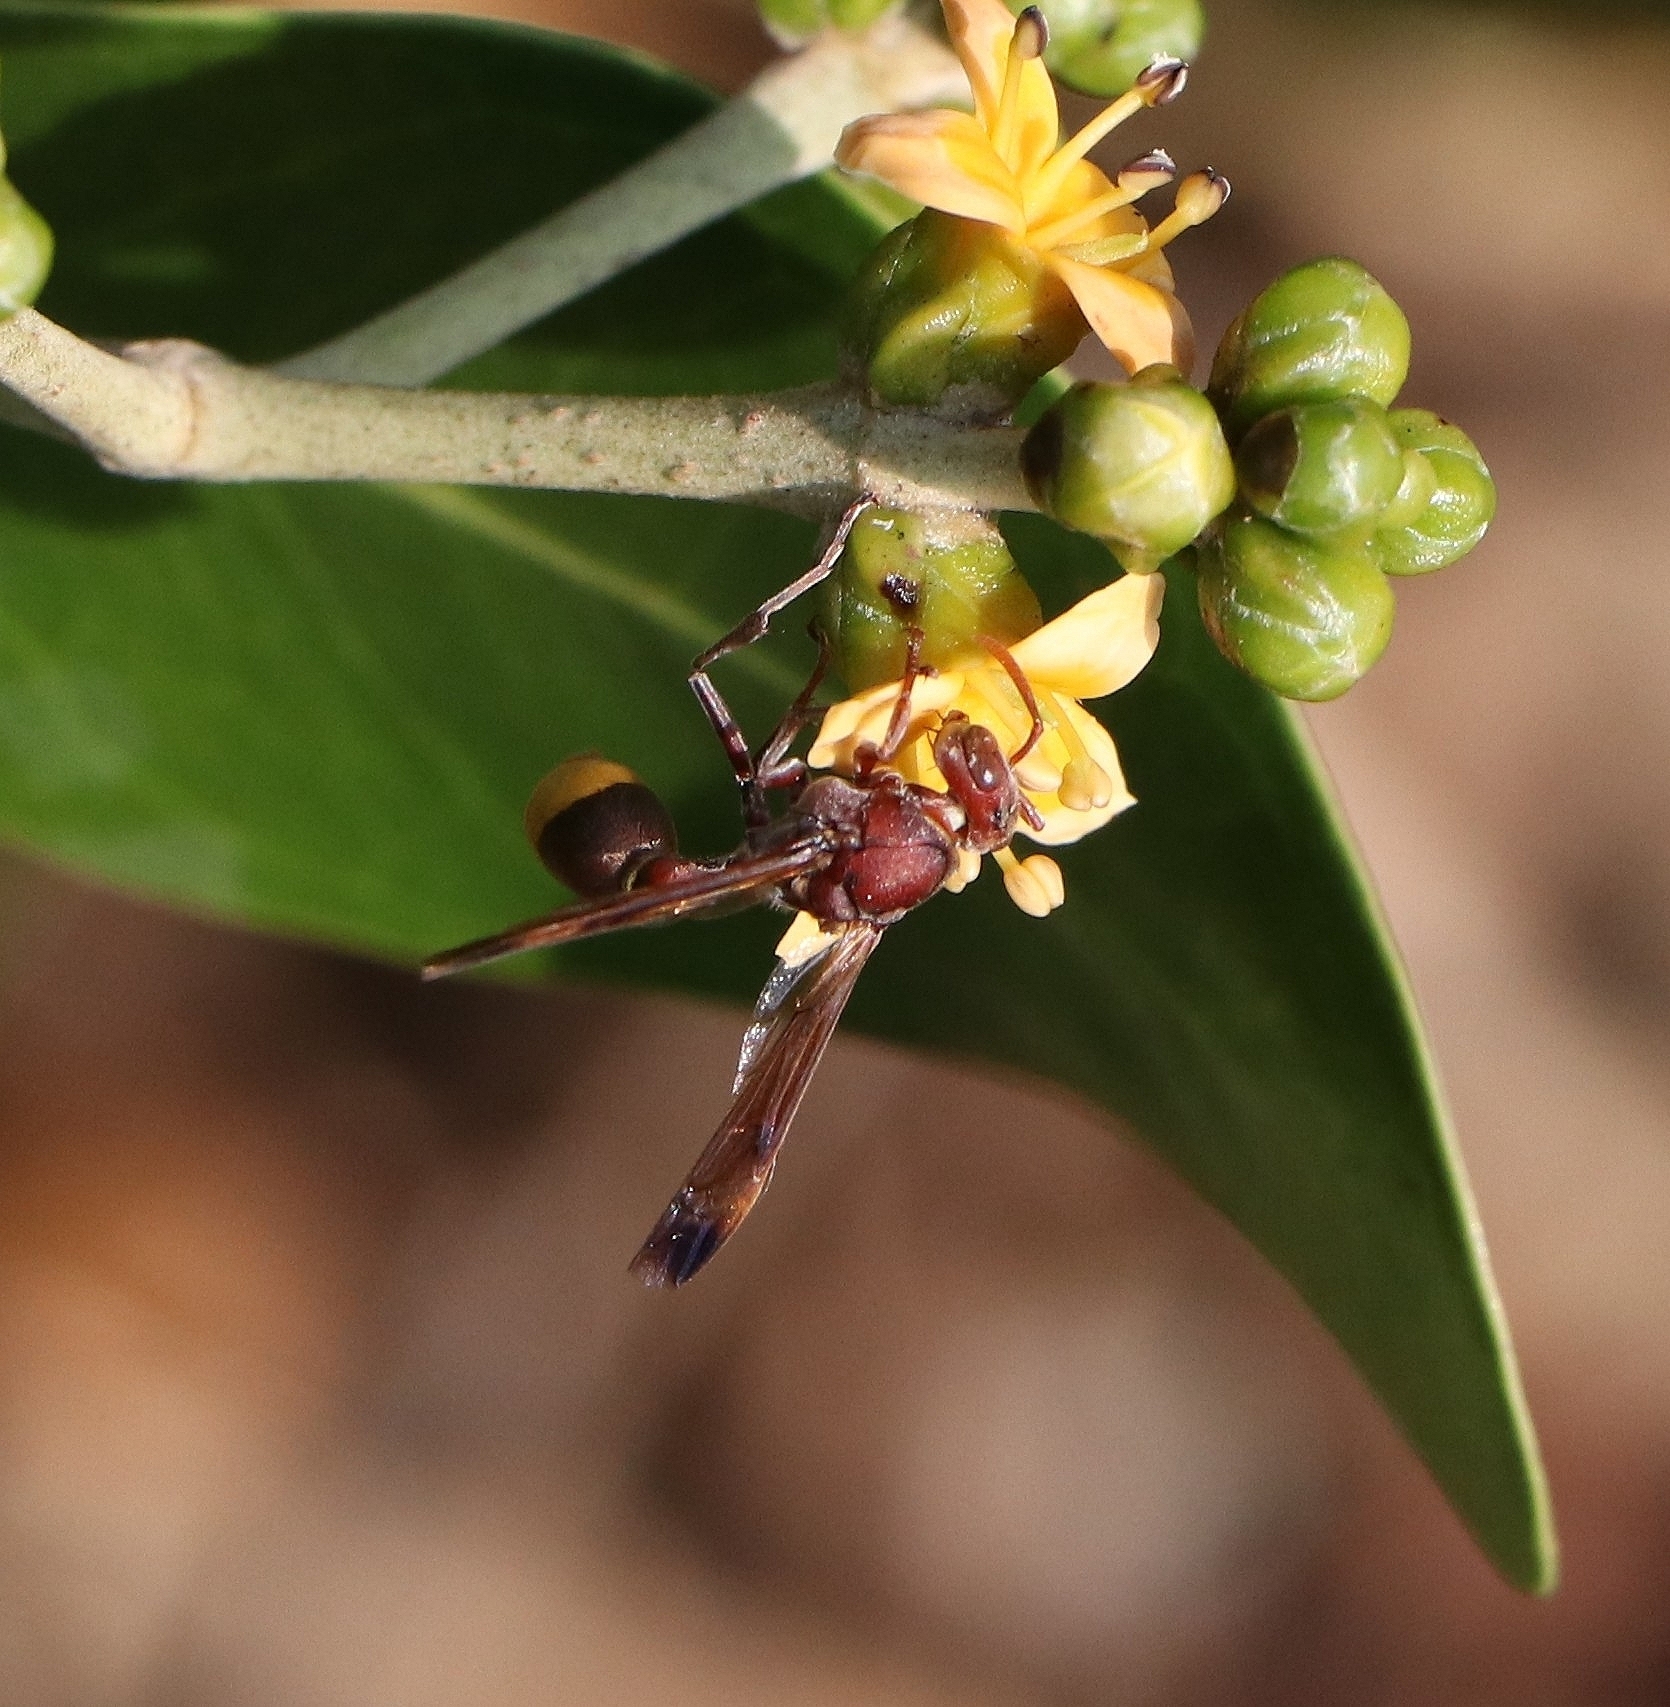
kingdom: Animalia
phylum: Arthropoda
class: Insecta
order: Hymenoptera
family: Vespidae
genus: Ropalidia
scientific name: Ropalidia
